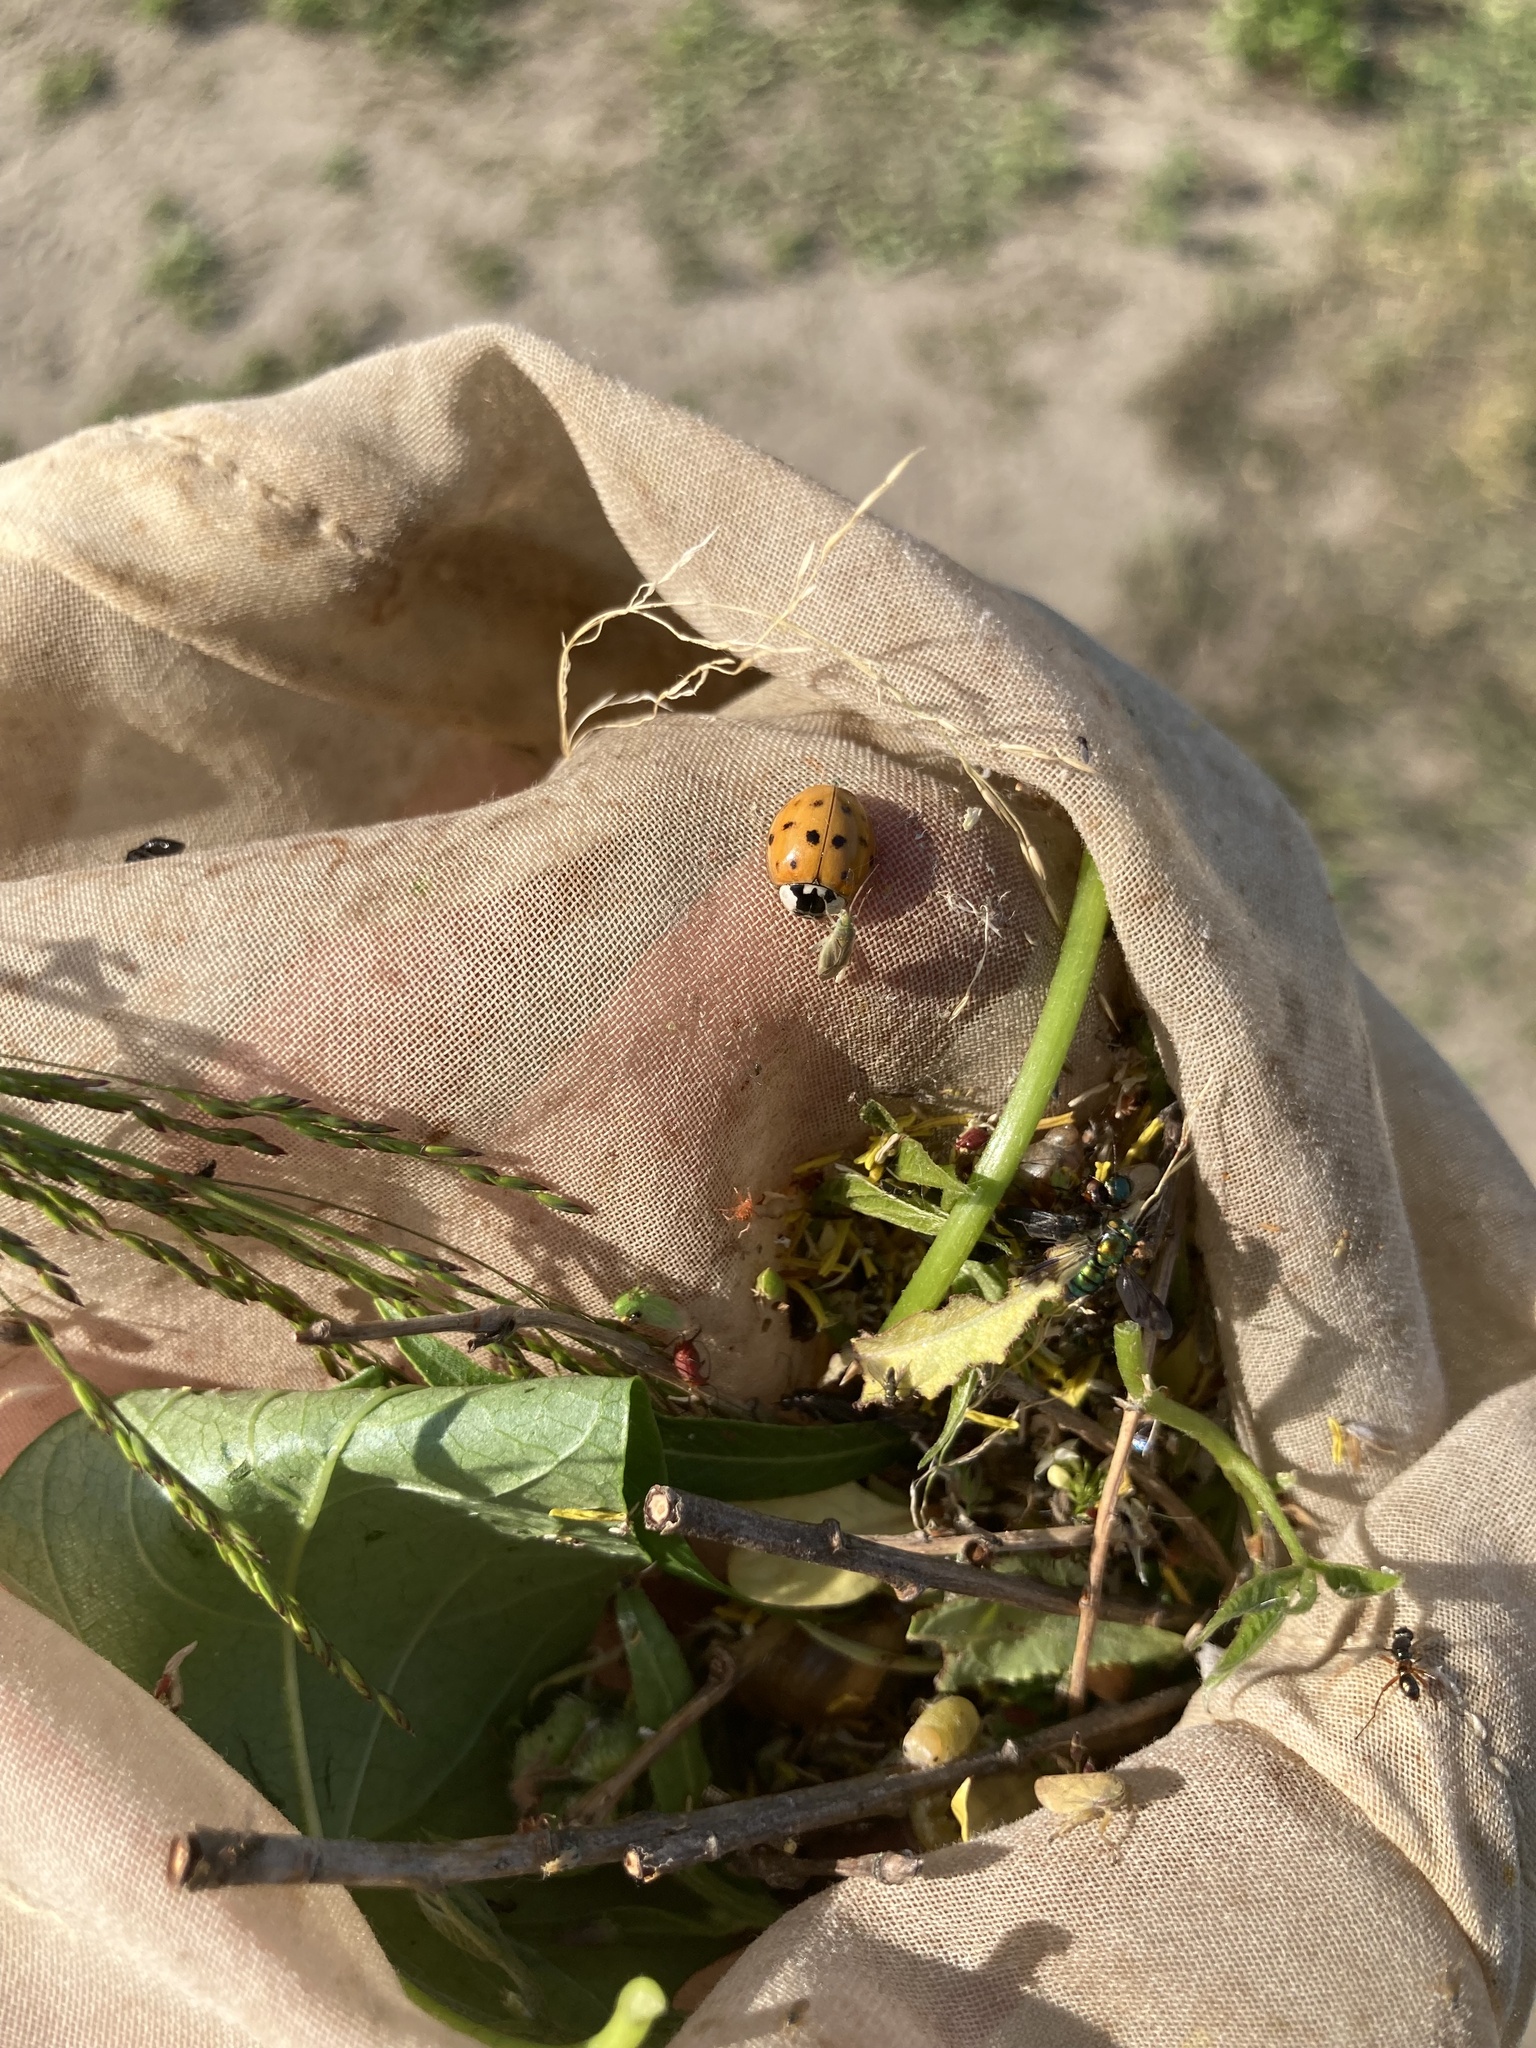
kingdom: Animalia
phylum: Arthropoda
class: Insecta
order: Coleoptera
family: Coccinellidae
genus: Harmonia
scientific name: Harmonia axyridis
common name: Harlequin ladybird
